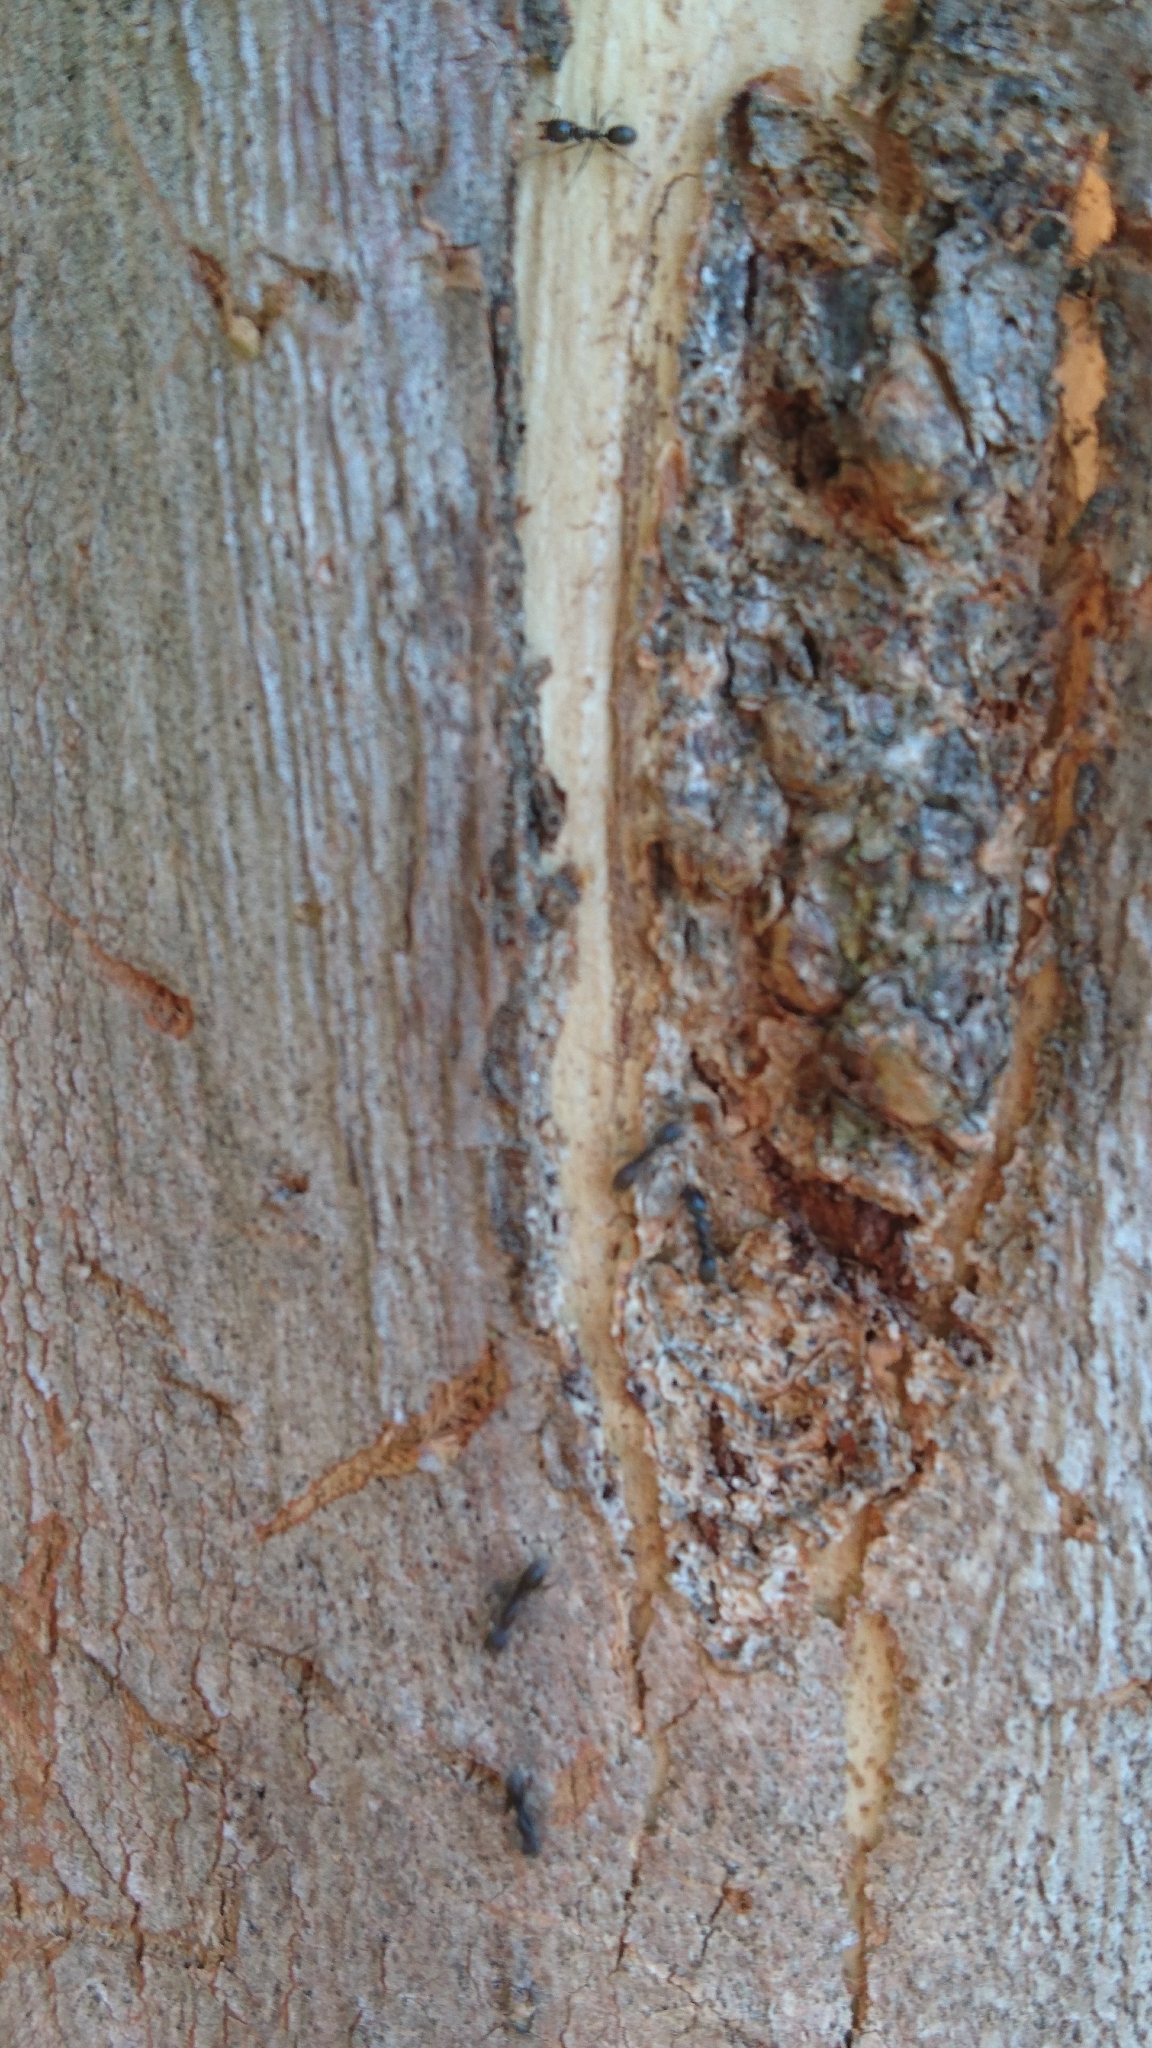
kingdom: Animalia
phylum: Arthropoda
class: Insecta
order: Hymenoptera
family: Formicidae
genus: Linepithema
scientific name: Linepithema humile
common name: Argentine ant
